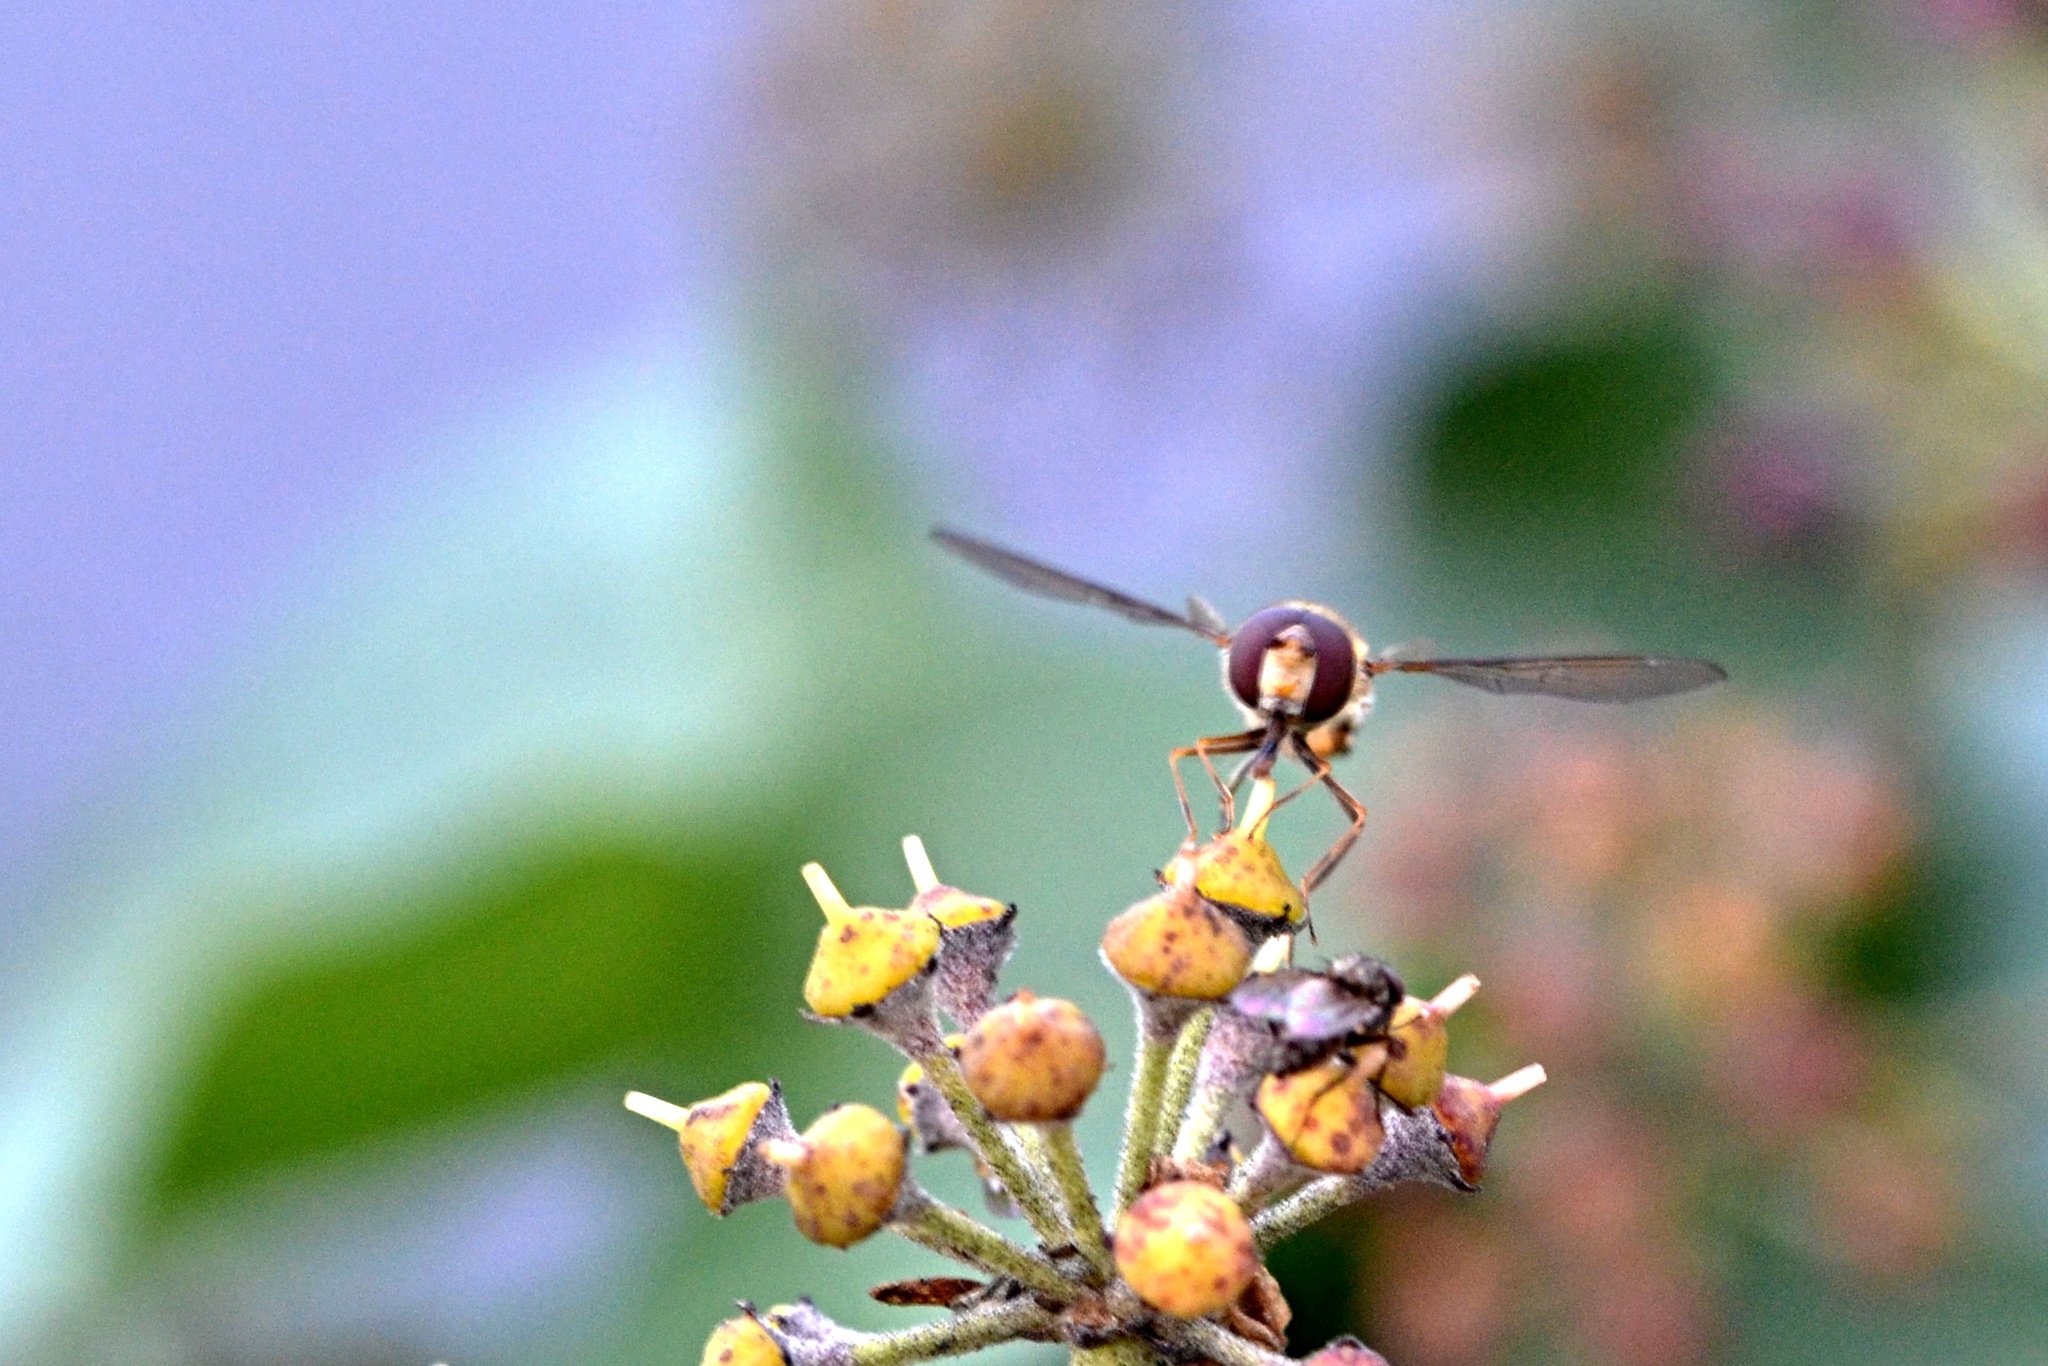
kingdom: Animalia
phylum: Arthropoda
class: Insecta
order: Diptera
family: Syrphidae
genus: Episyrphus
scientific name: Episyrphus balteatus
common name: Marmalade hoverfly
